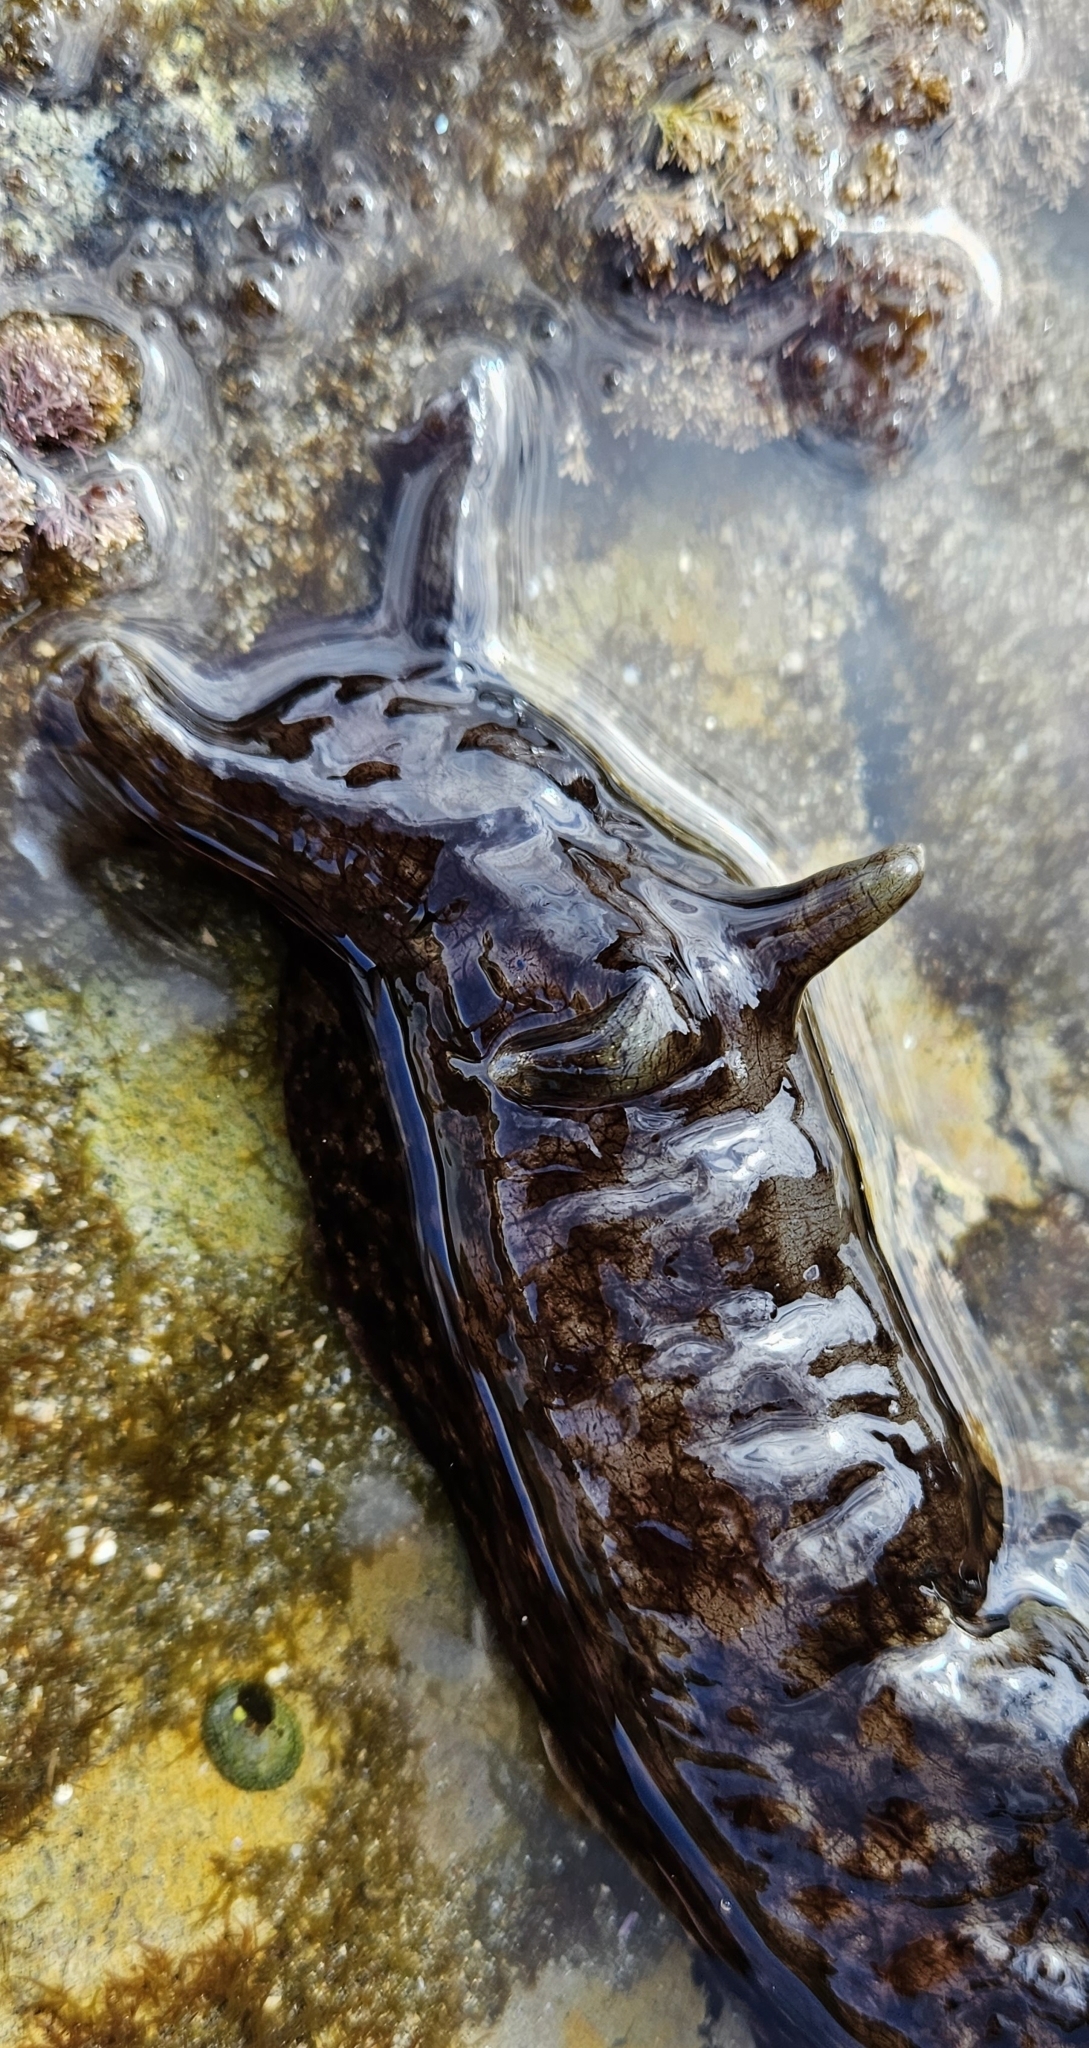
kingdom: Animalia
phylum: Mollusca
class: Gastropoda
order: Aplysiida
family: Aplysiidae
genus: Aplysia
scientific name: Aplysia californica
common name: California seahare
